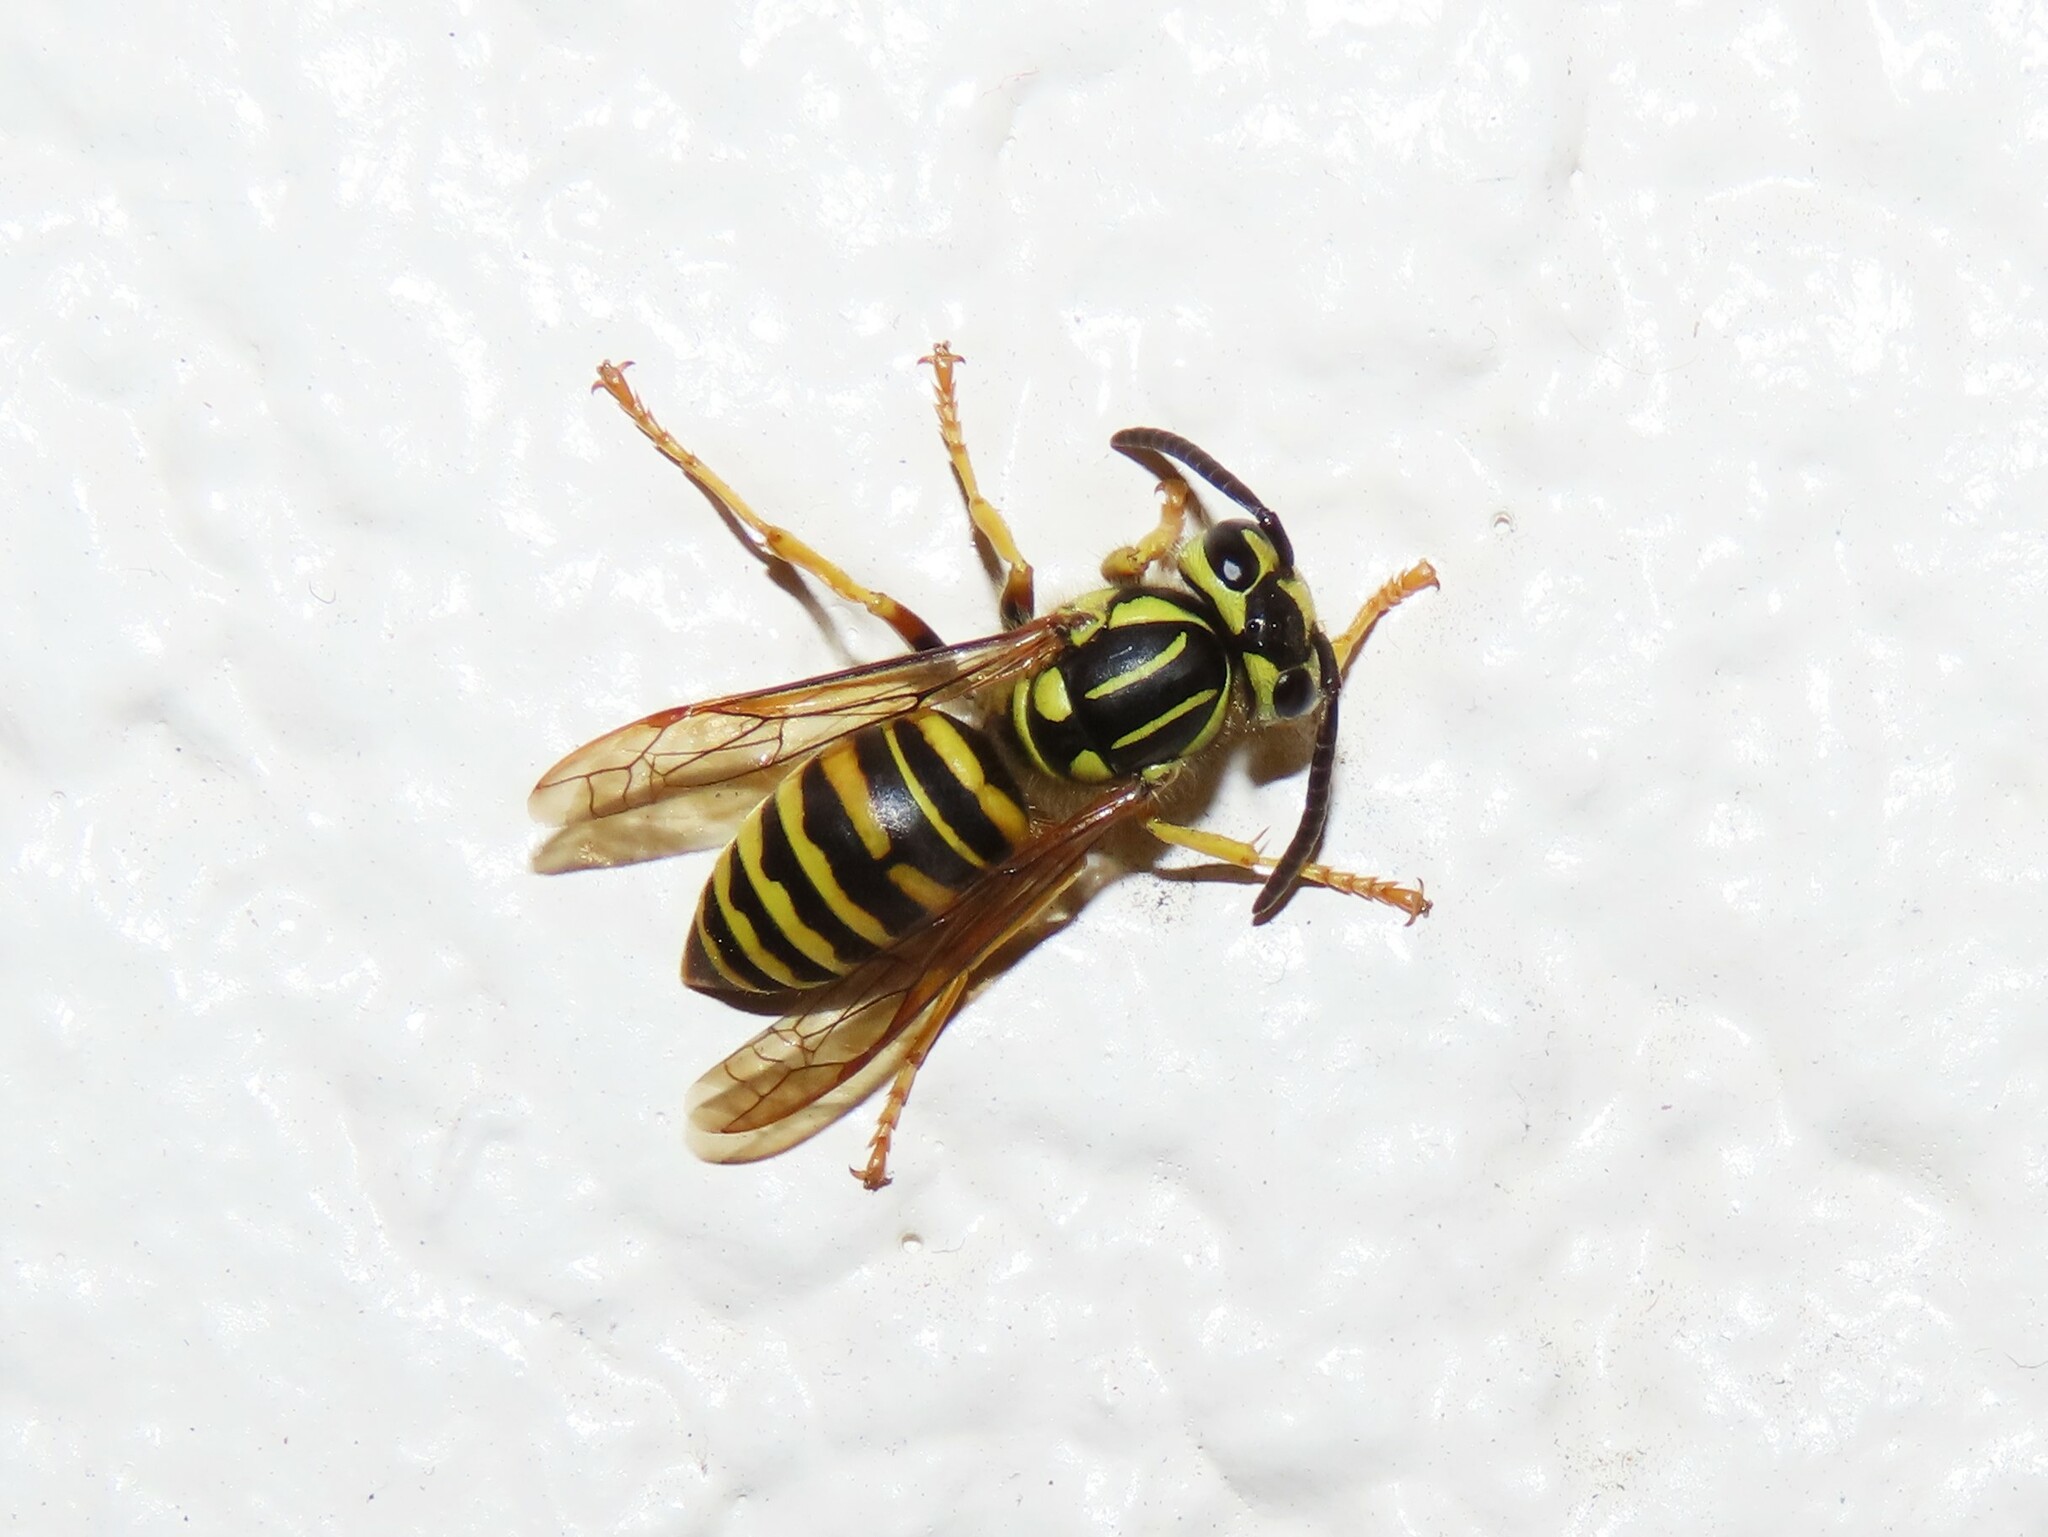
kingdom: Animalia
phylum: Arthropoda
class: Insecta
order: Hymenoptera
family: Vespidae
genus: Vespula
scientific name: Vespula squamosa
